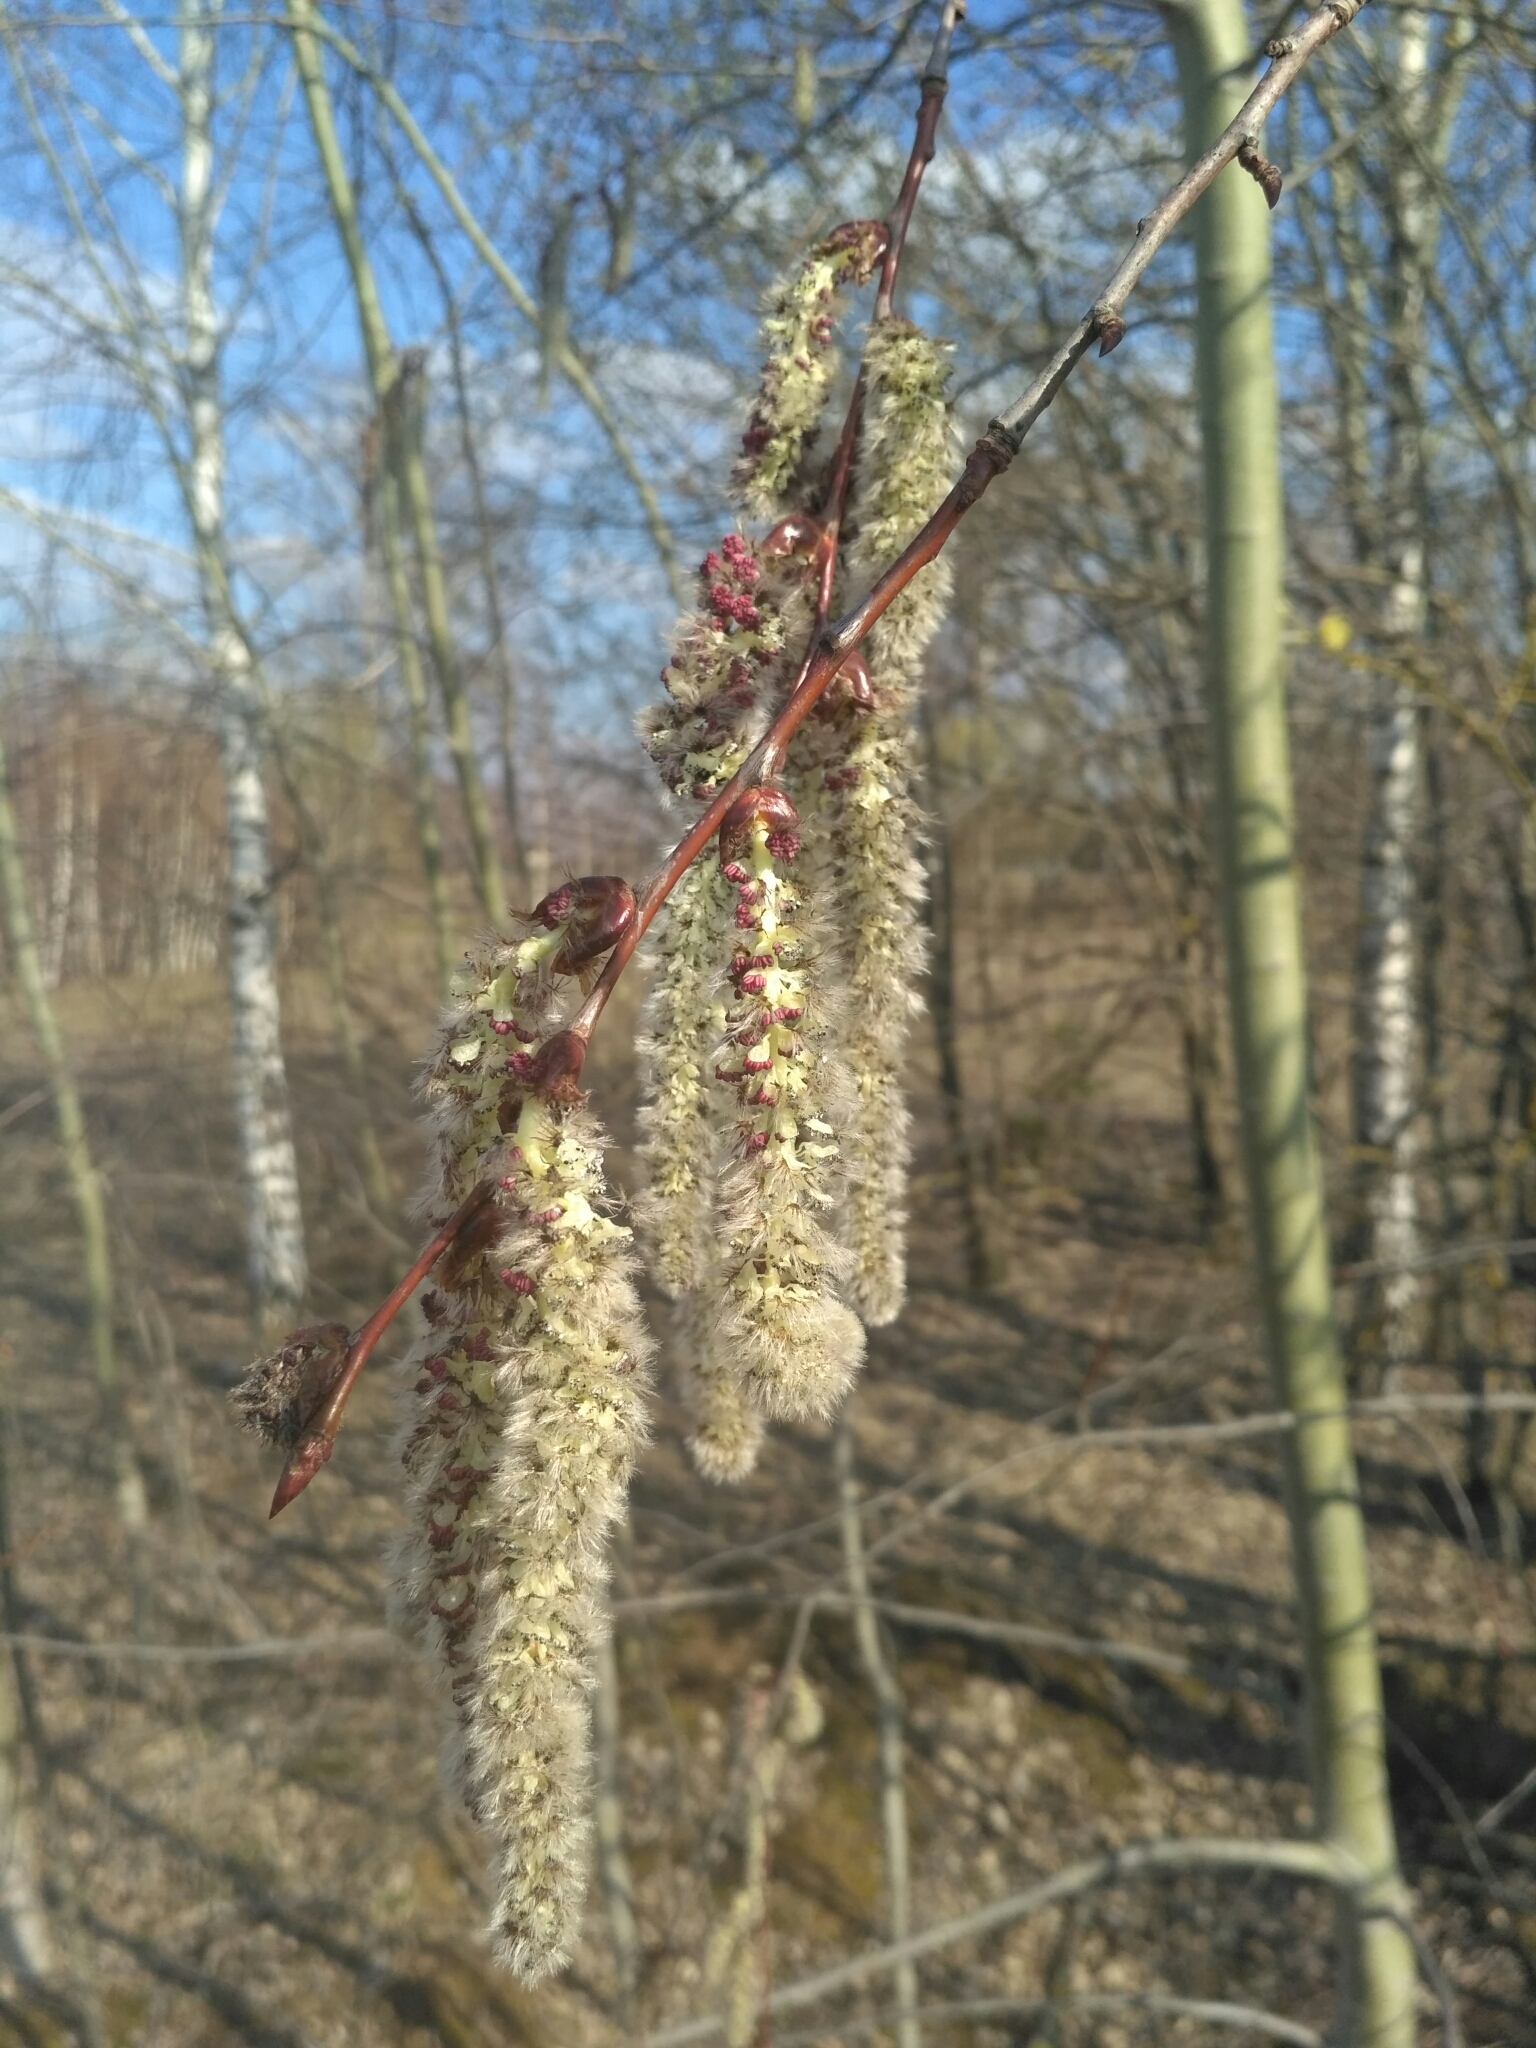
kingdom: Plantae
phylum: Tracheophyta
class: Magnoliopsida
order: Malpighiales
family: Salicaceae
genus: Populus
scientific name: Populus tremula
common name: European aspen
